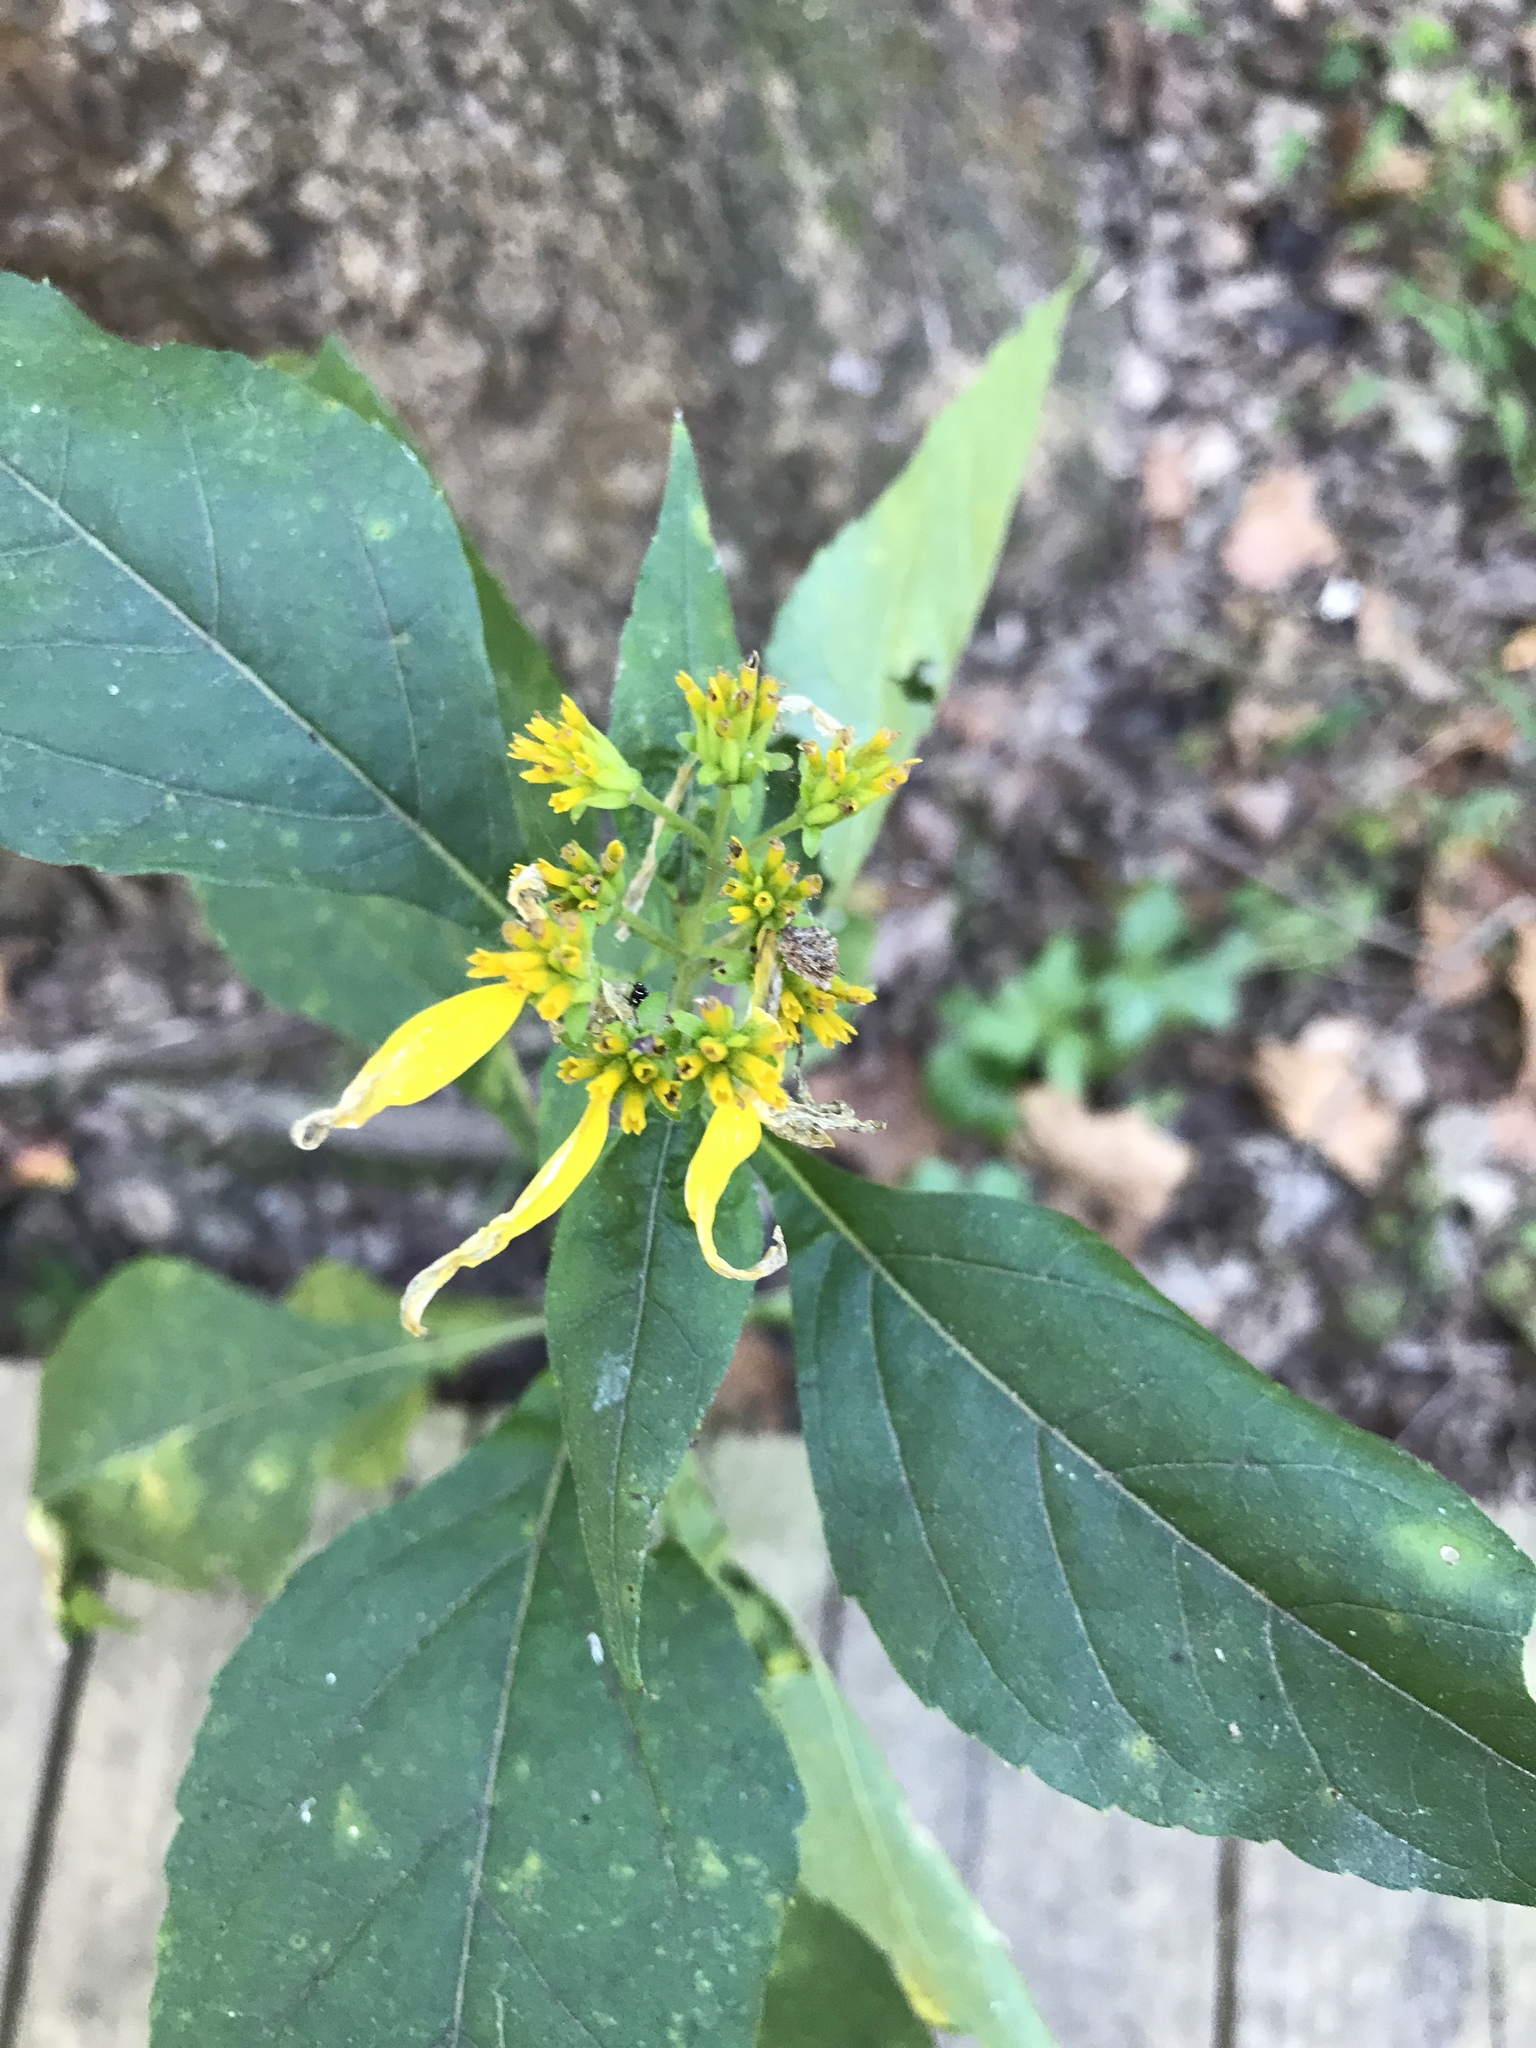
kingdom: Plantae
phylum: Tracheophyta
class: Magnoliopsida
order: Asterales
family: Asteraceae
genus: Verbesina
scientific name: Verbesina occidentalis
